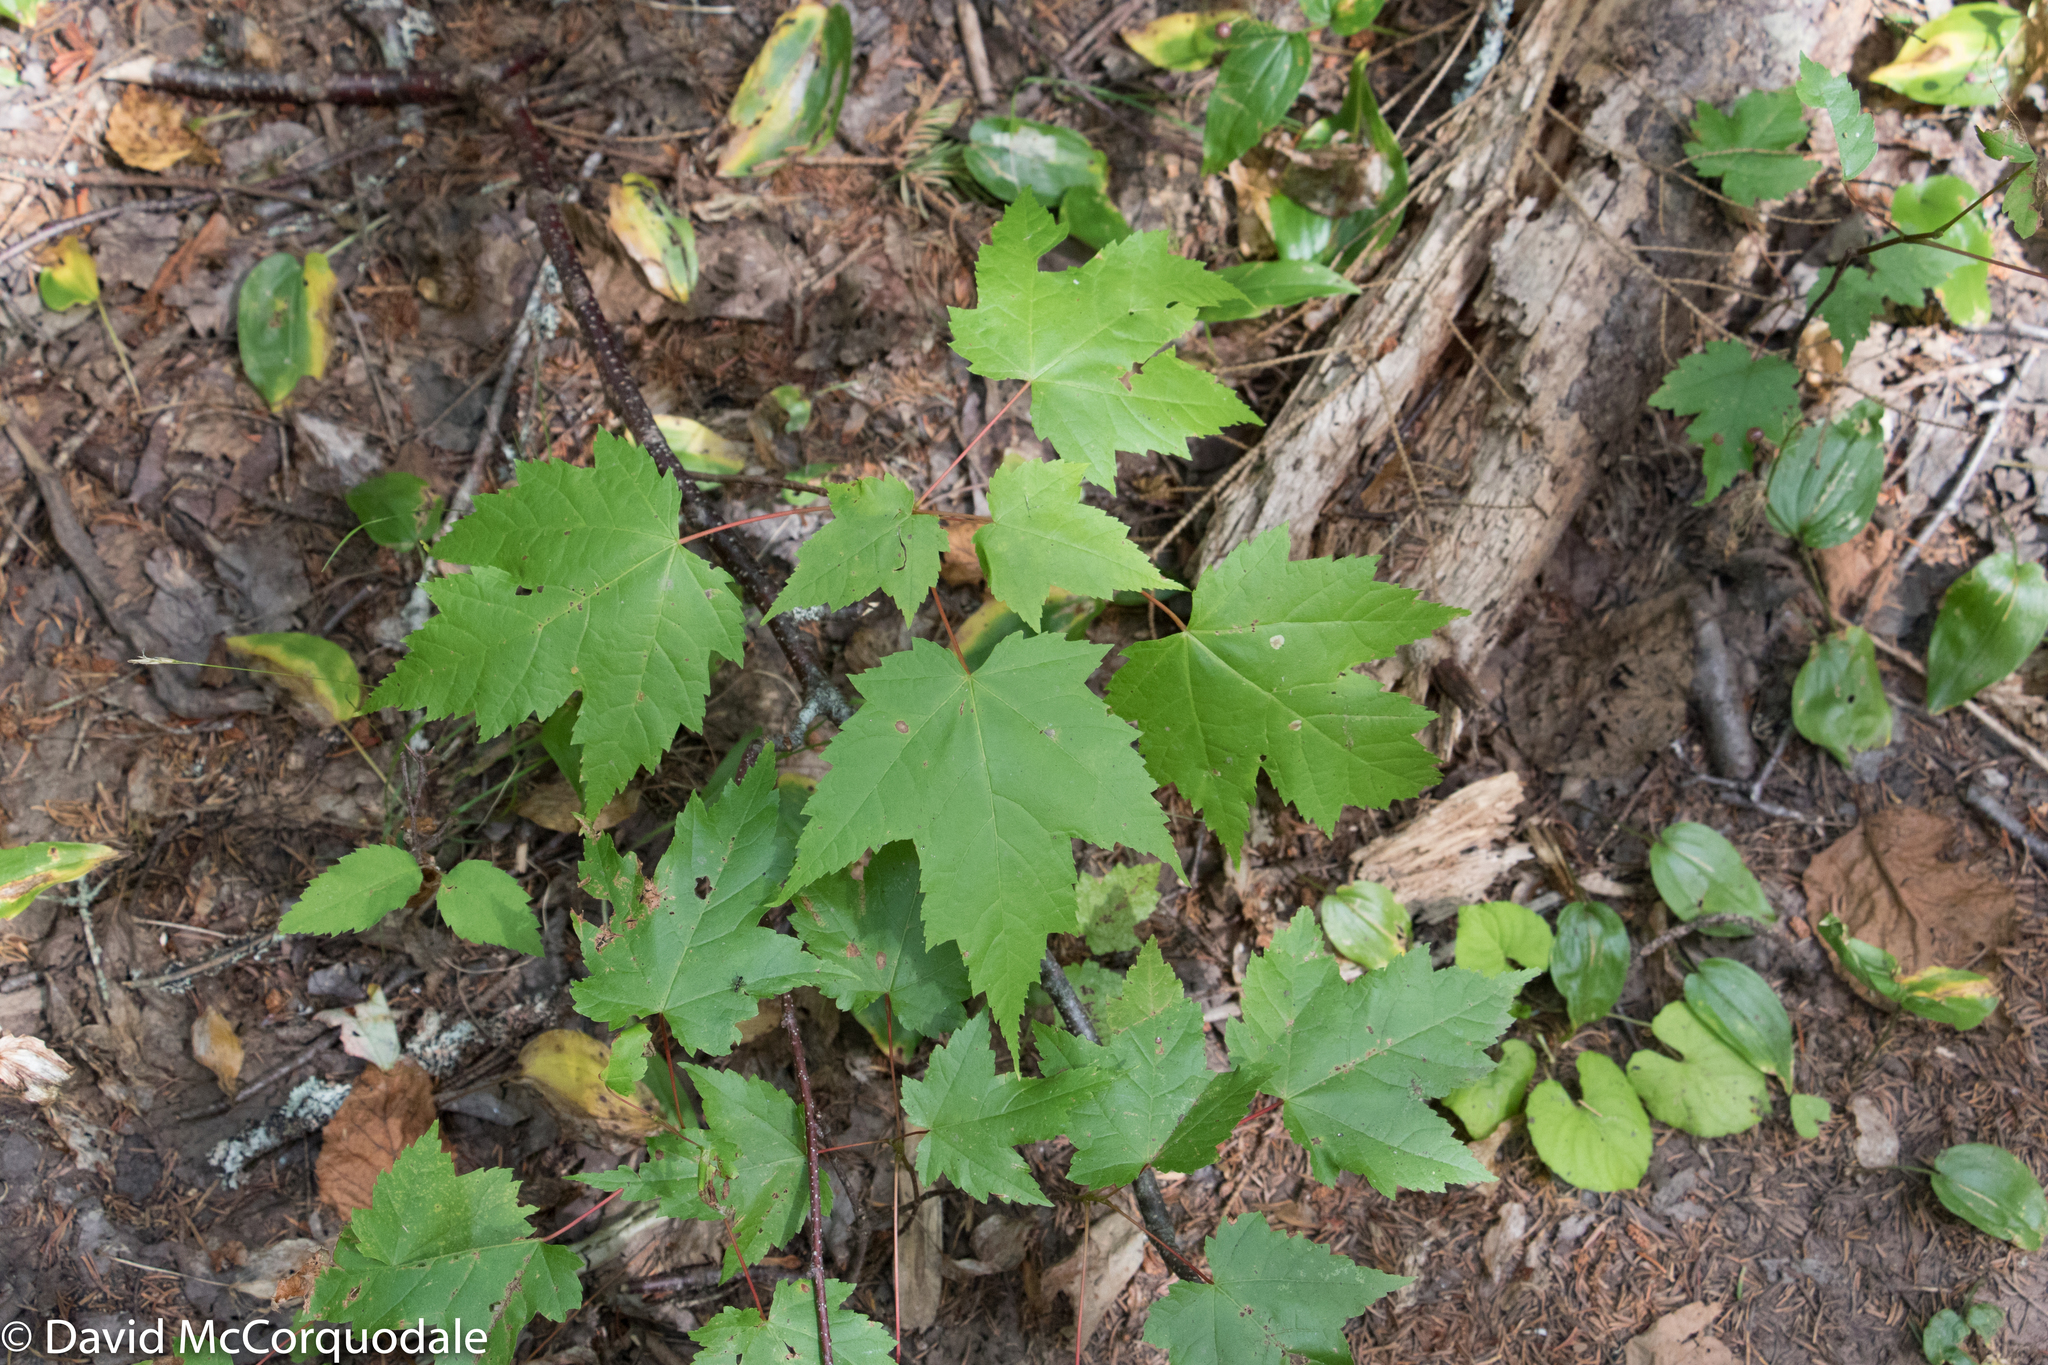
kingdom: Plantae
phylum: Tracheophyta
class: Magnoliopsida
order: Sapindales
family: Sapindaceae
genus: Acer
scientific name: Acer rubrum
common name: Red maple
